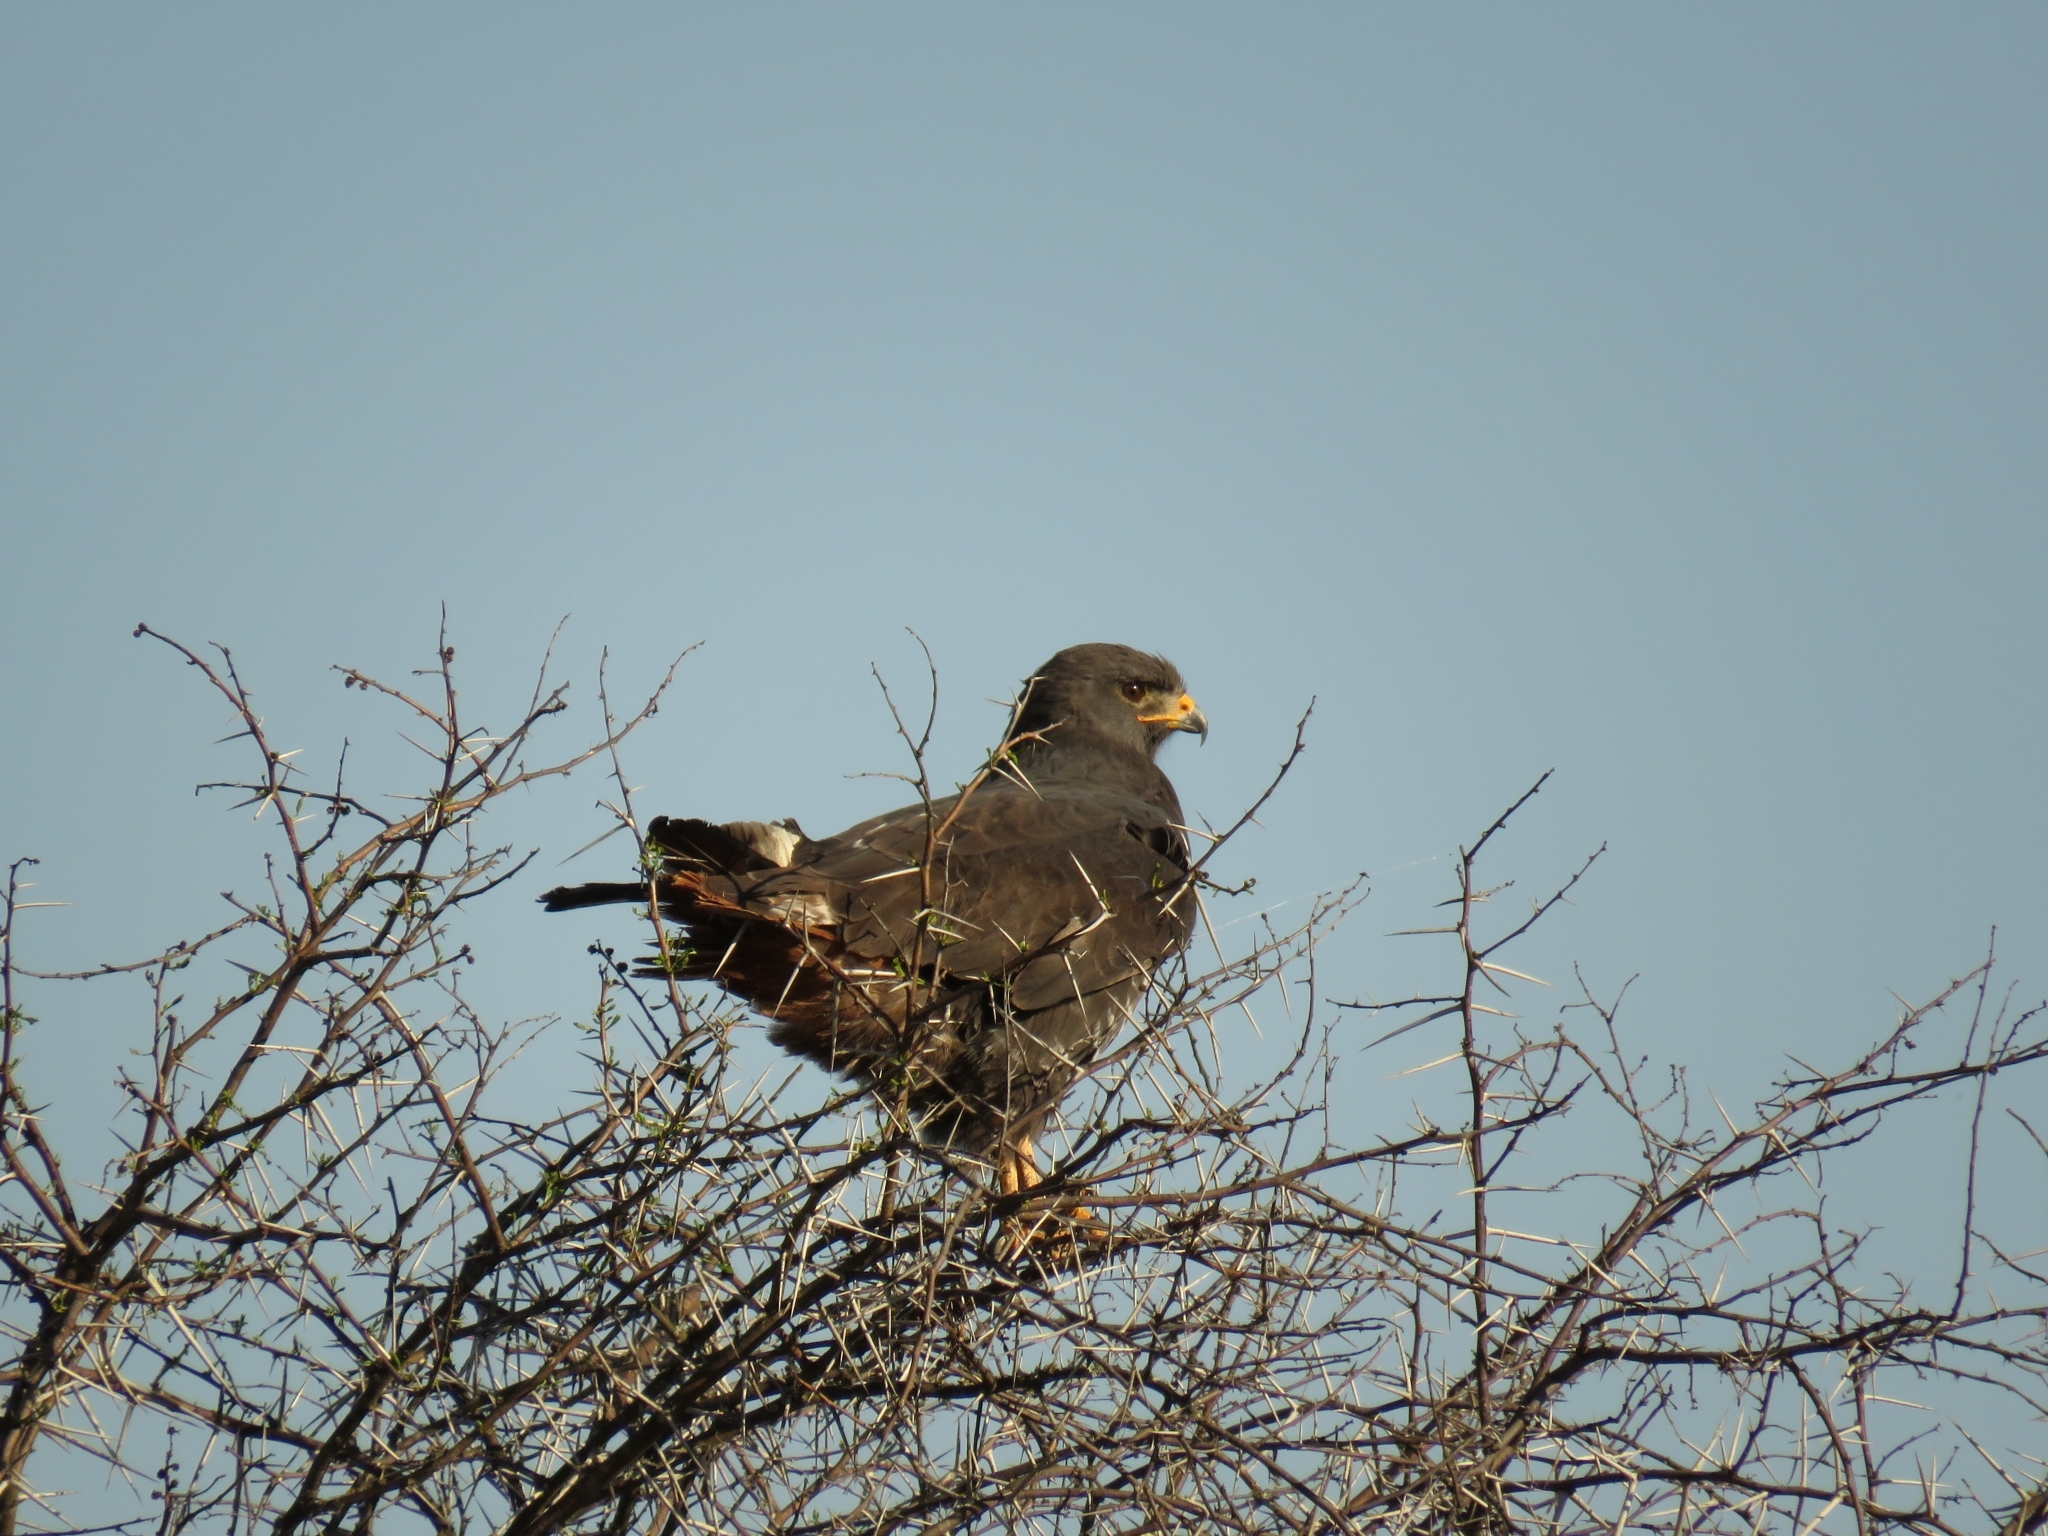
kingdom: Animalia
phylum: Chordata
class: Aves
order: Accipitriformes
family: Accipitridae
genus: Buteo
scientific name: Buteo rufofuscus
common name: Jackal buzzard
